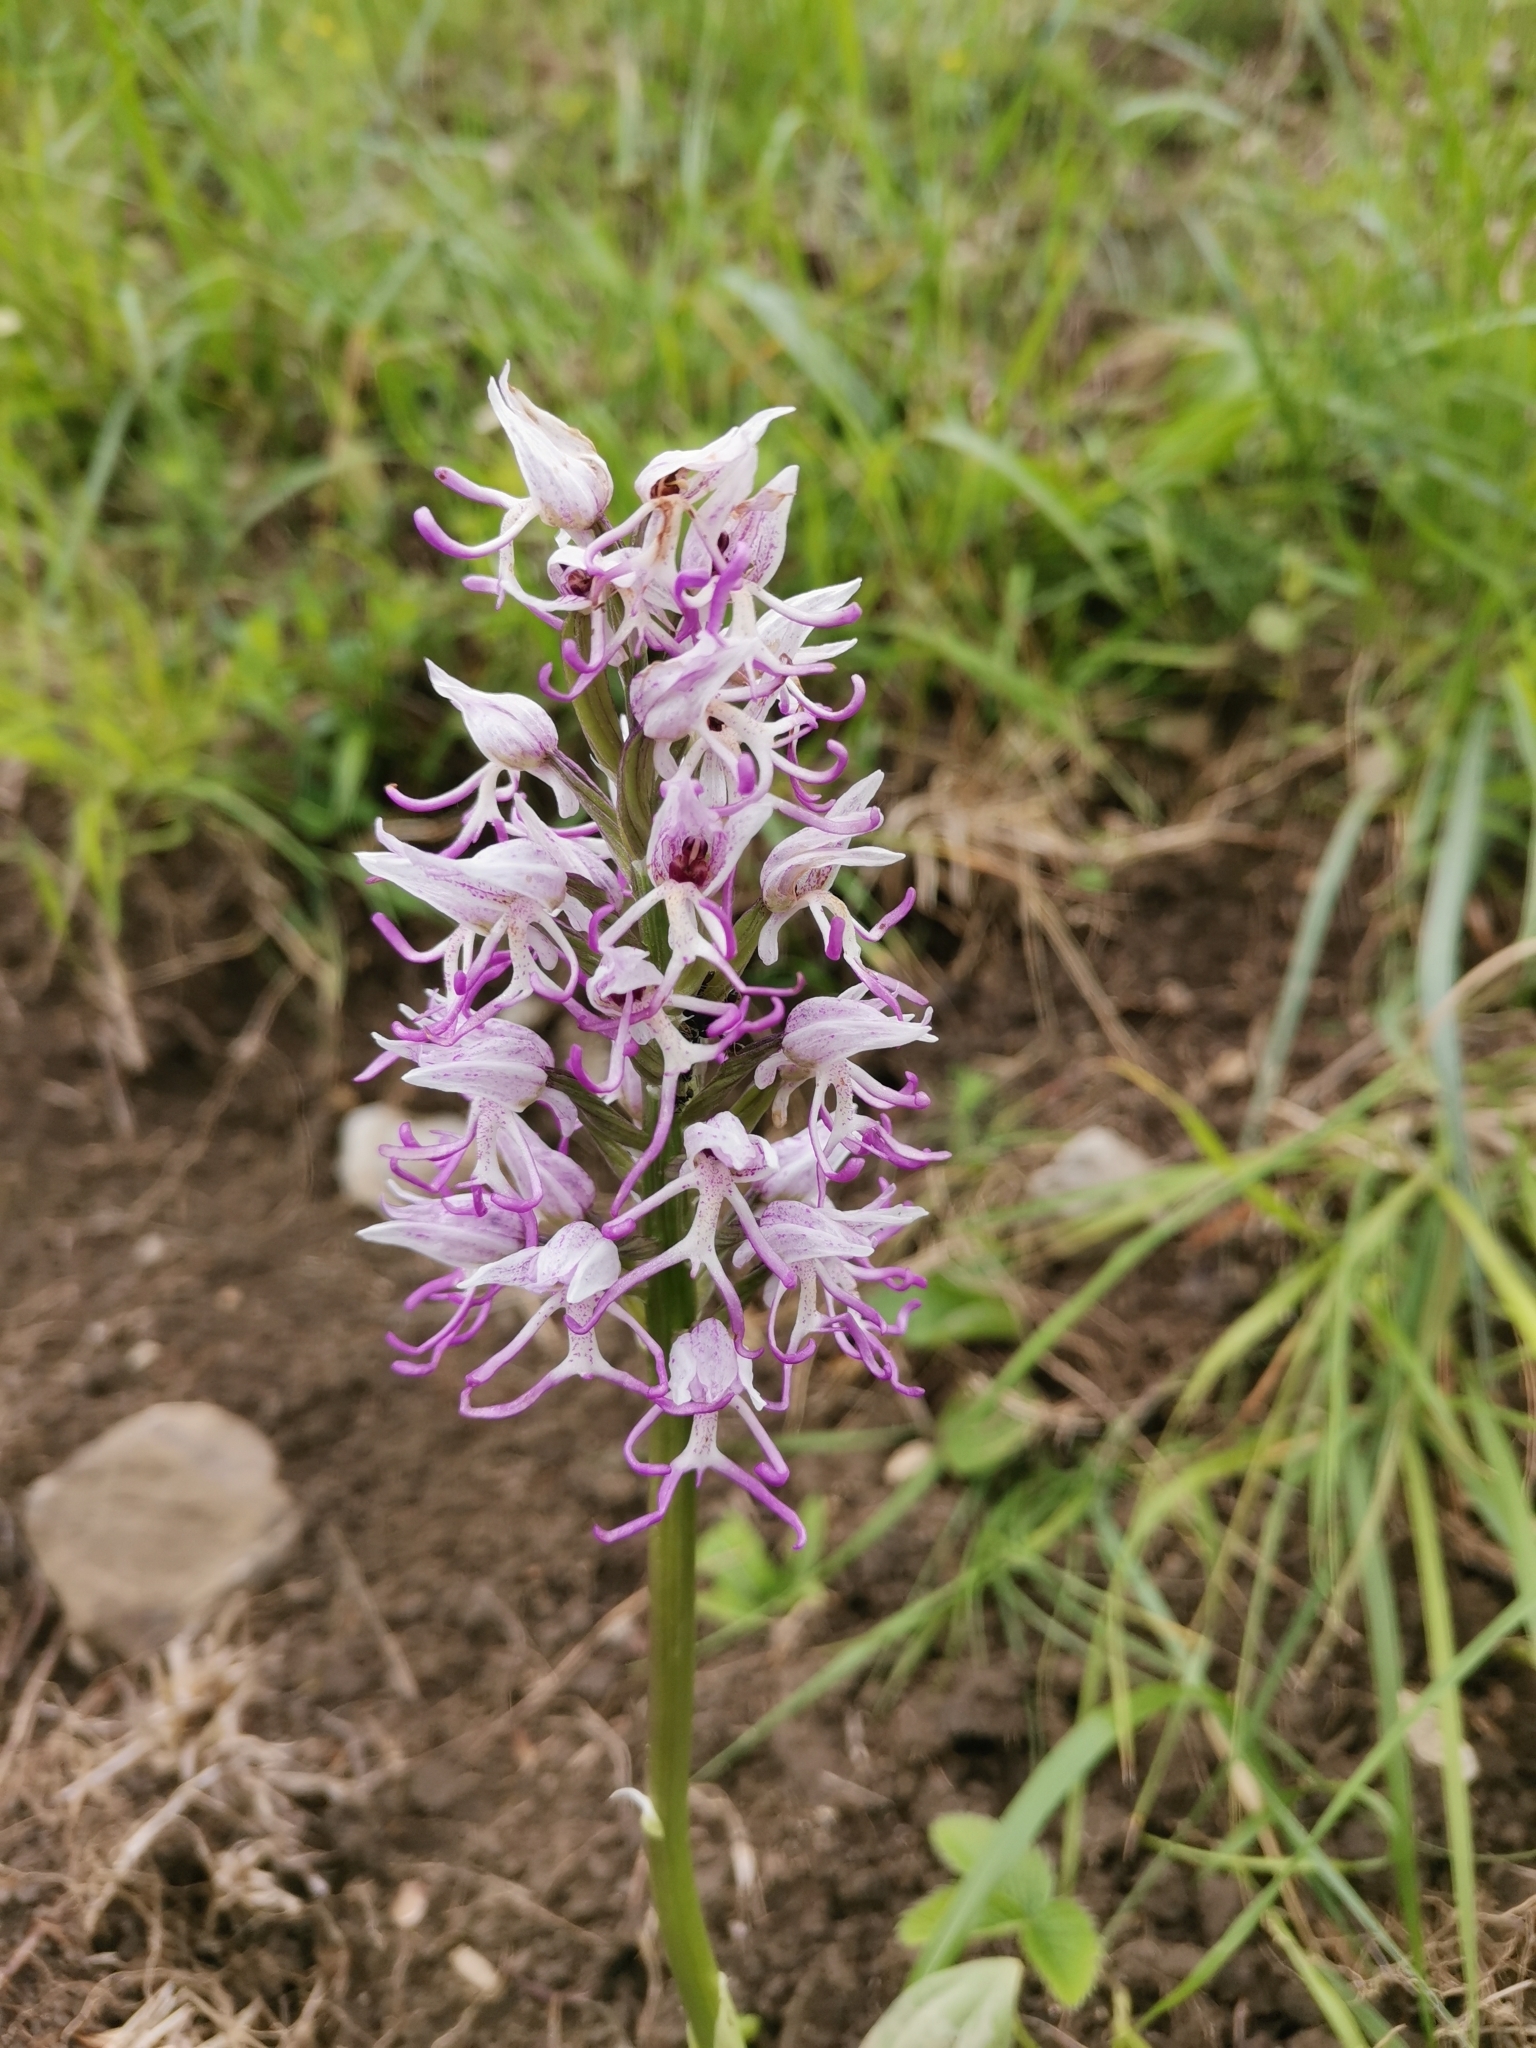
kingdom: Plantae
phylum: Tracheophyta
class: Liliopsida
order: Asparagales
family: Orchidaceae
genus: Orchis
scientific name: Orchis simia
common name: Monkey orchid
